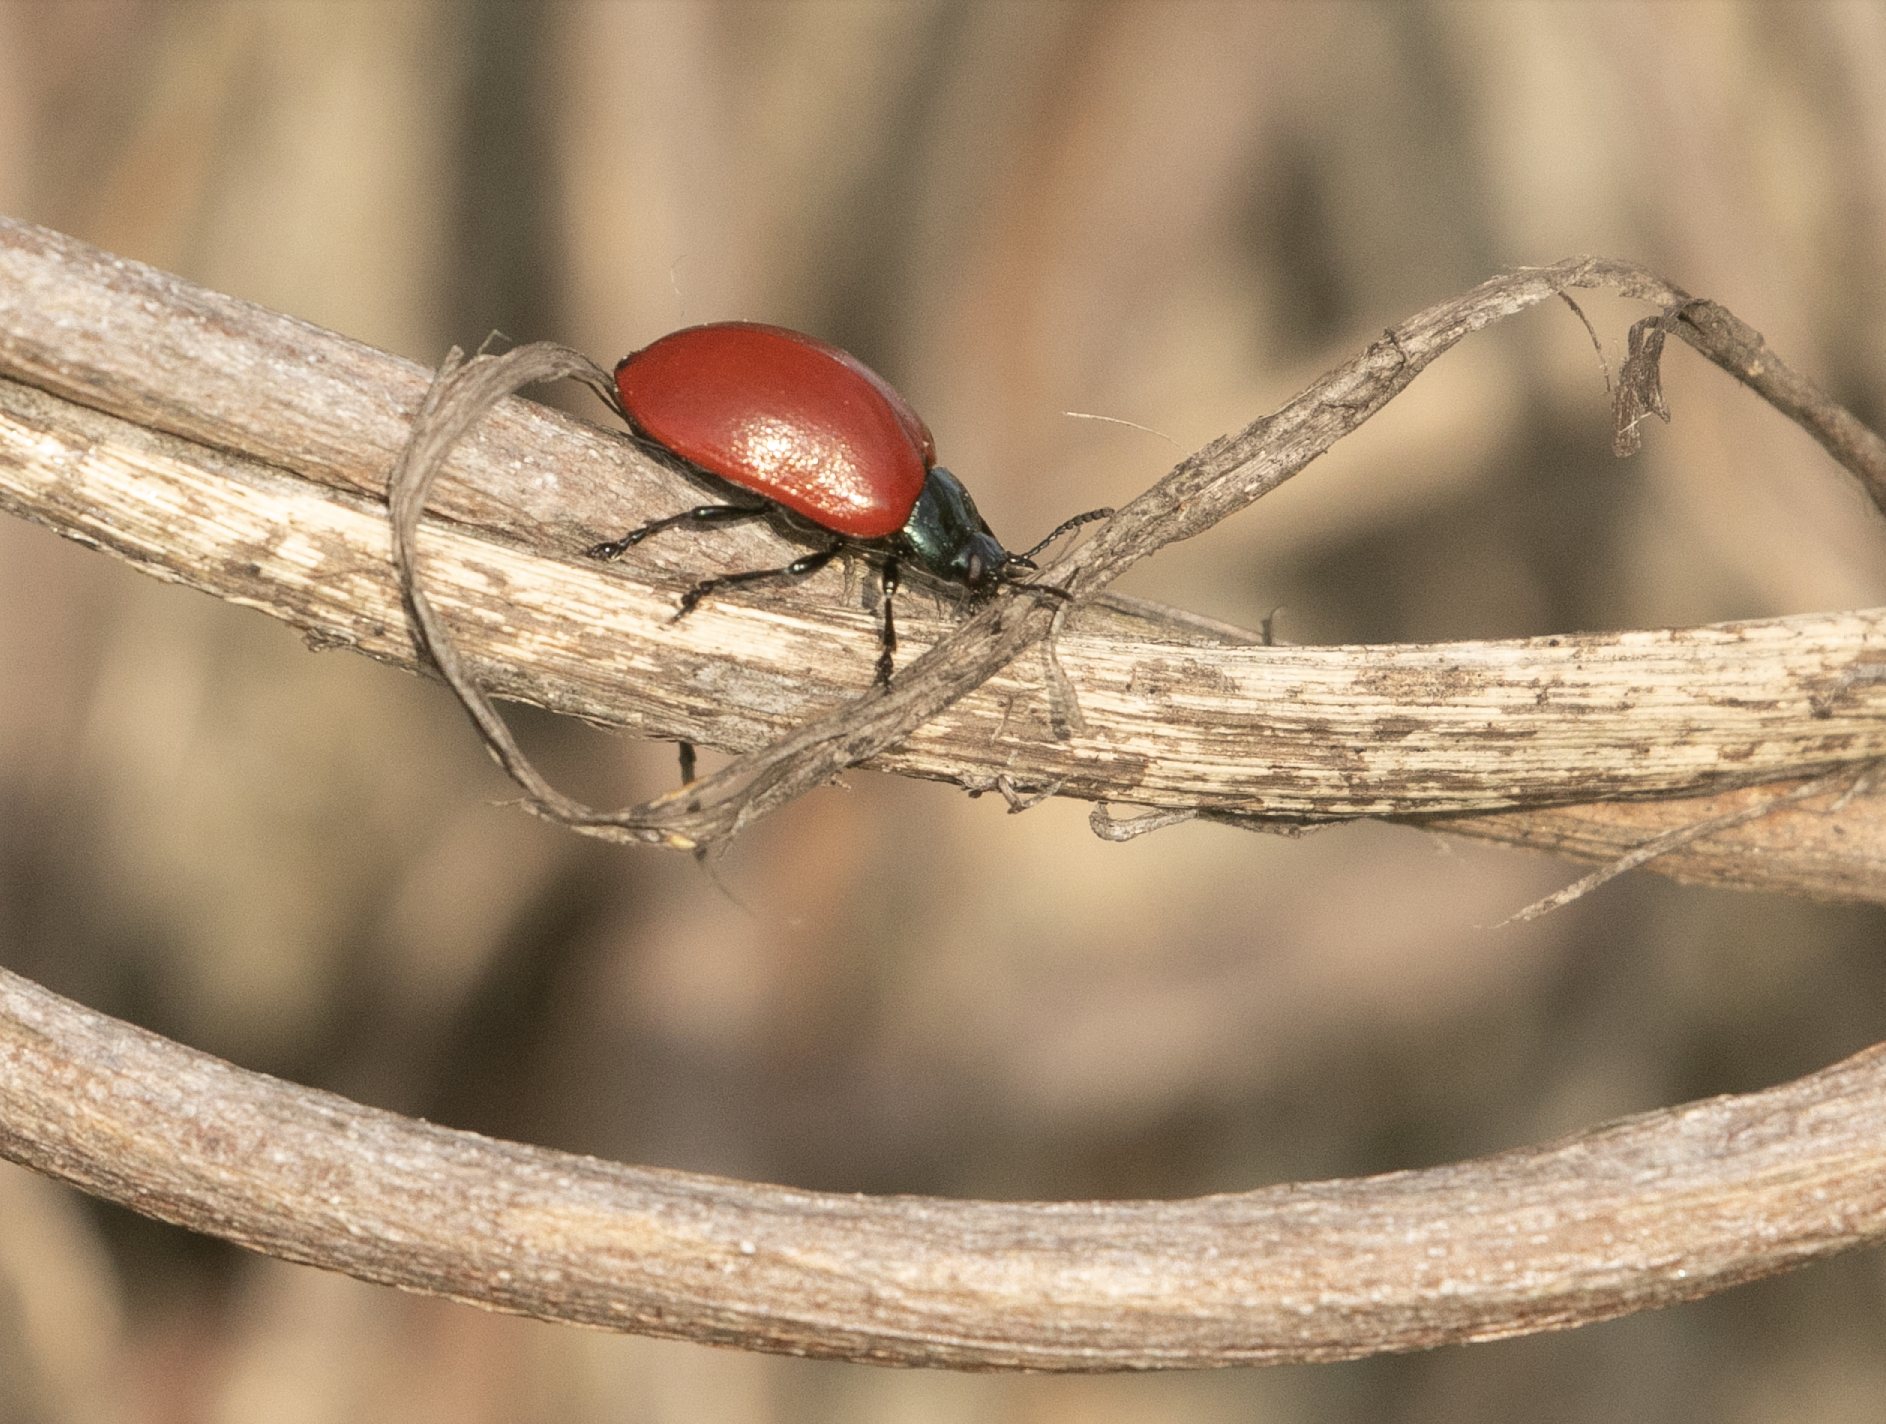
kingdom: Animalia
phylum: Arthropoda
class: Insecta
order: Coleoptera
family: Chrysomelidae
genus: Chrysomela
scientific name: Chrysomela populi
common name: Red poplar leaf beetle
